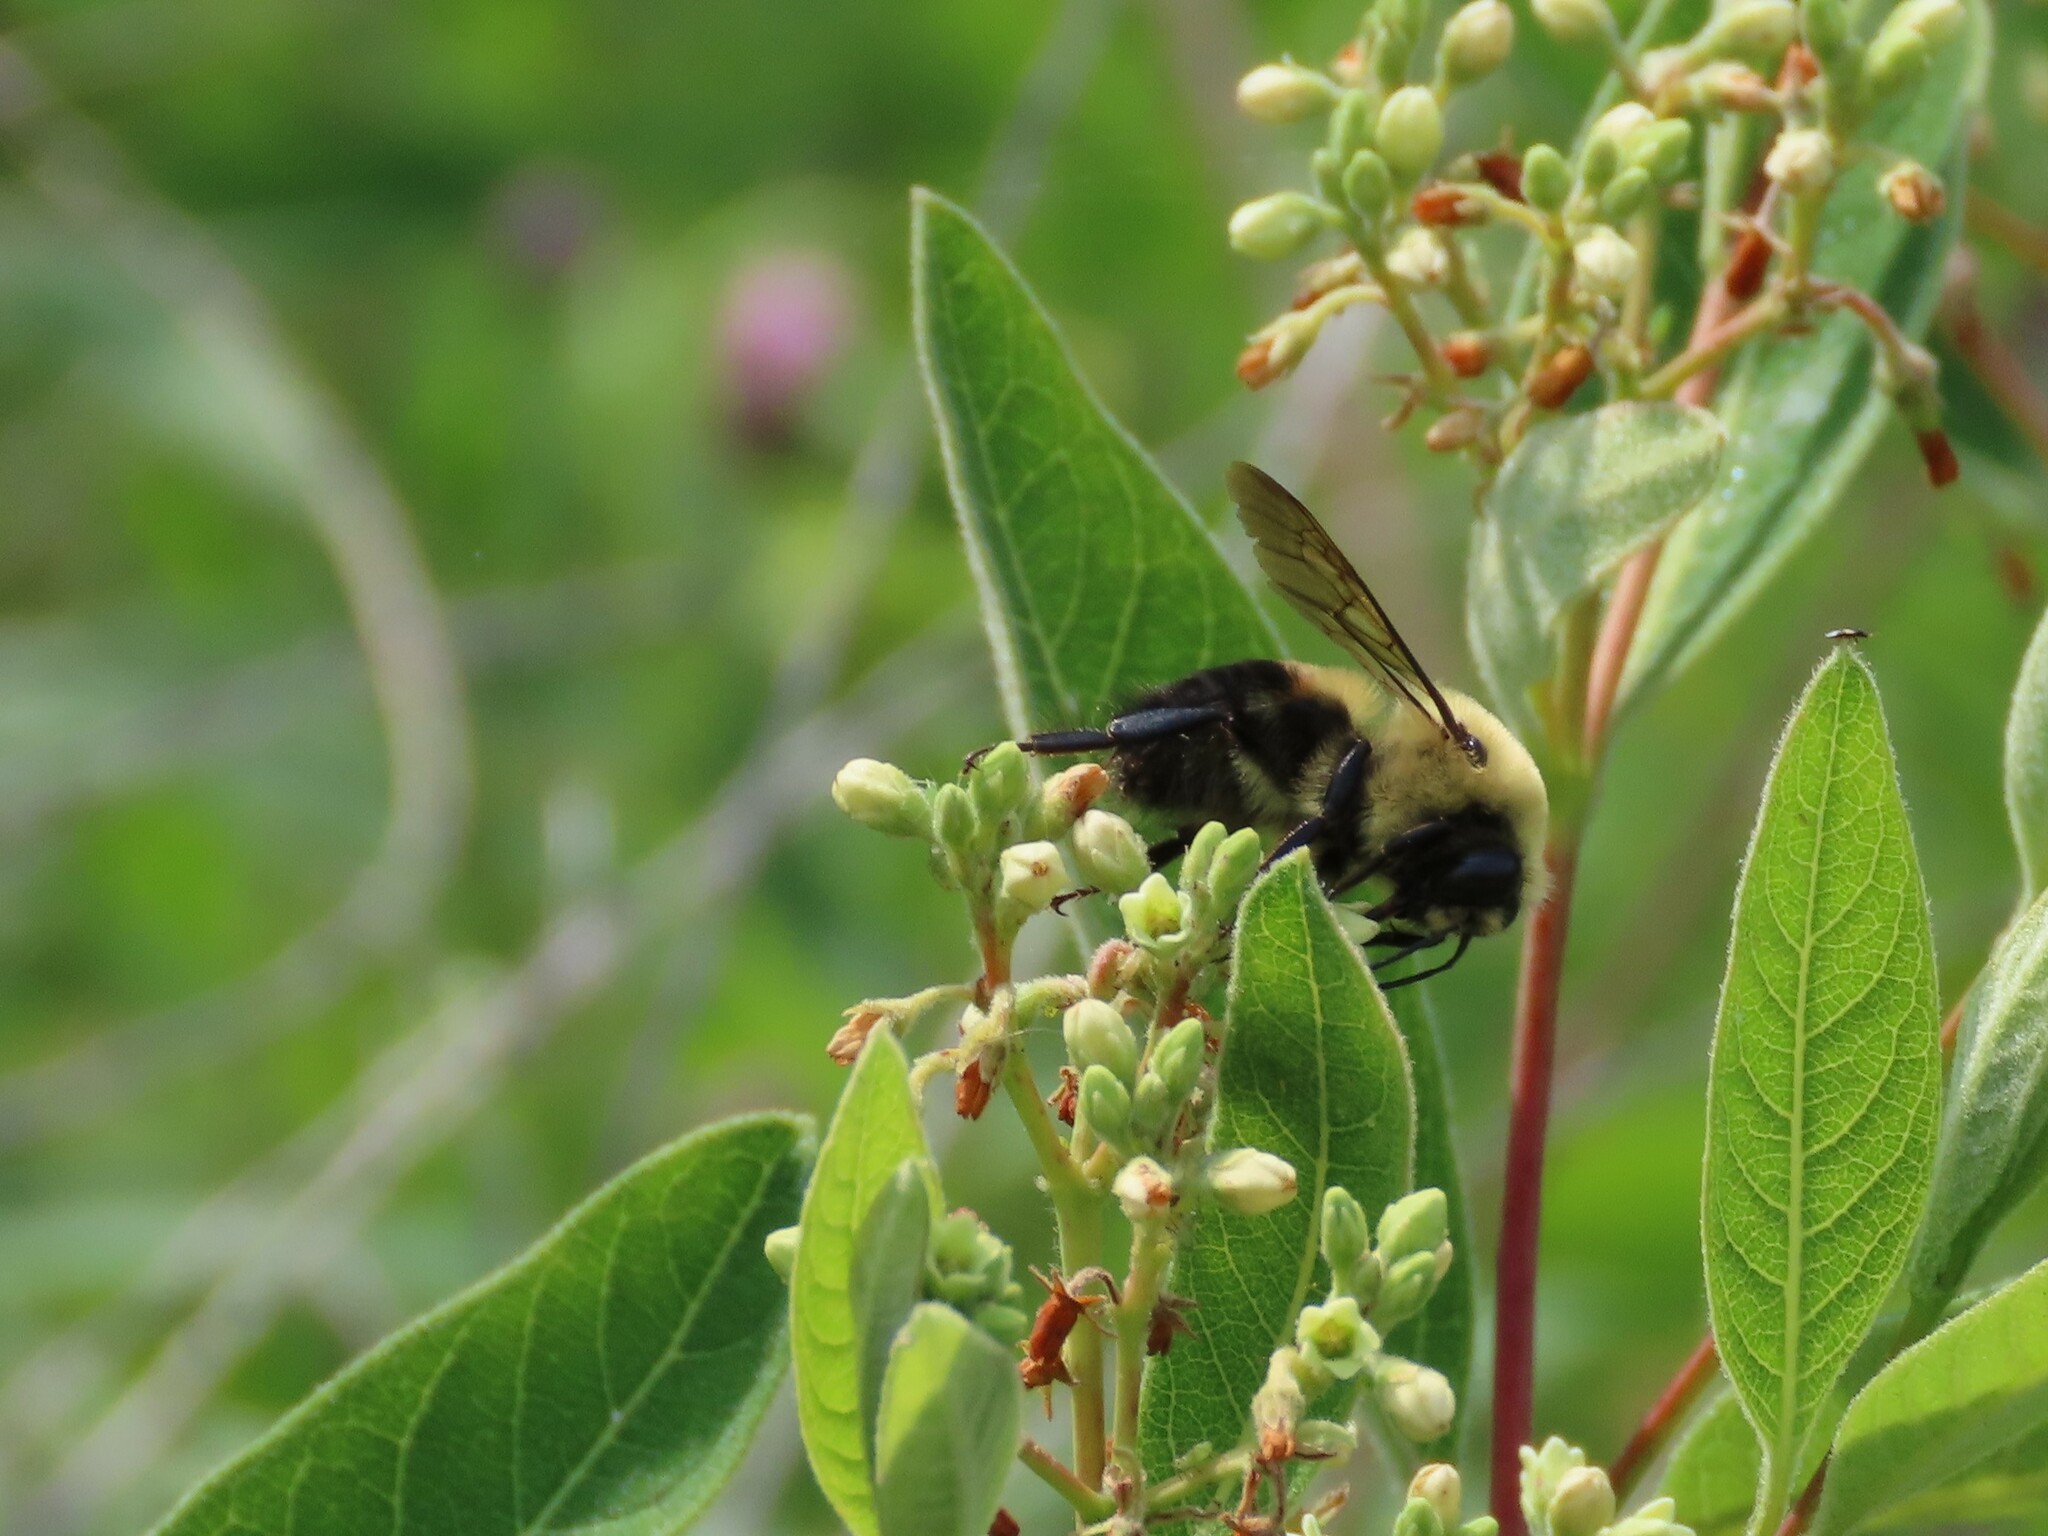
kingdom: Animalia
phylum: Arthropoda
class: Insecta
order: Hymenoptera
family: Apidae
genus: Bombus
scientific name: Bombus griseocollis
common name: Brown-belted bumble bee
